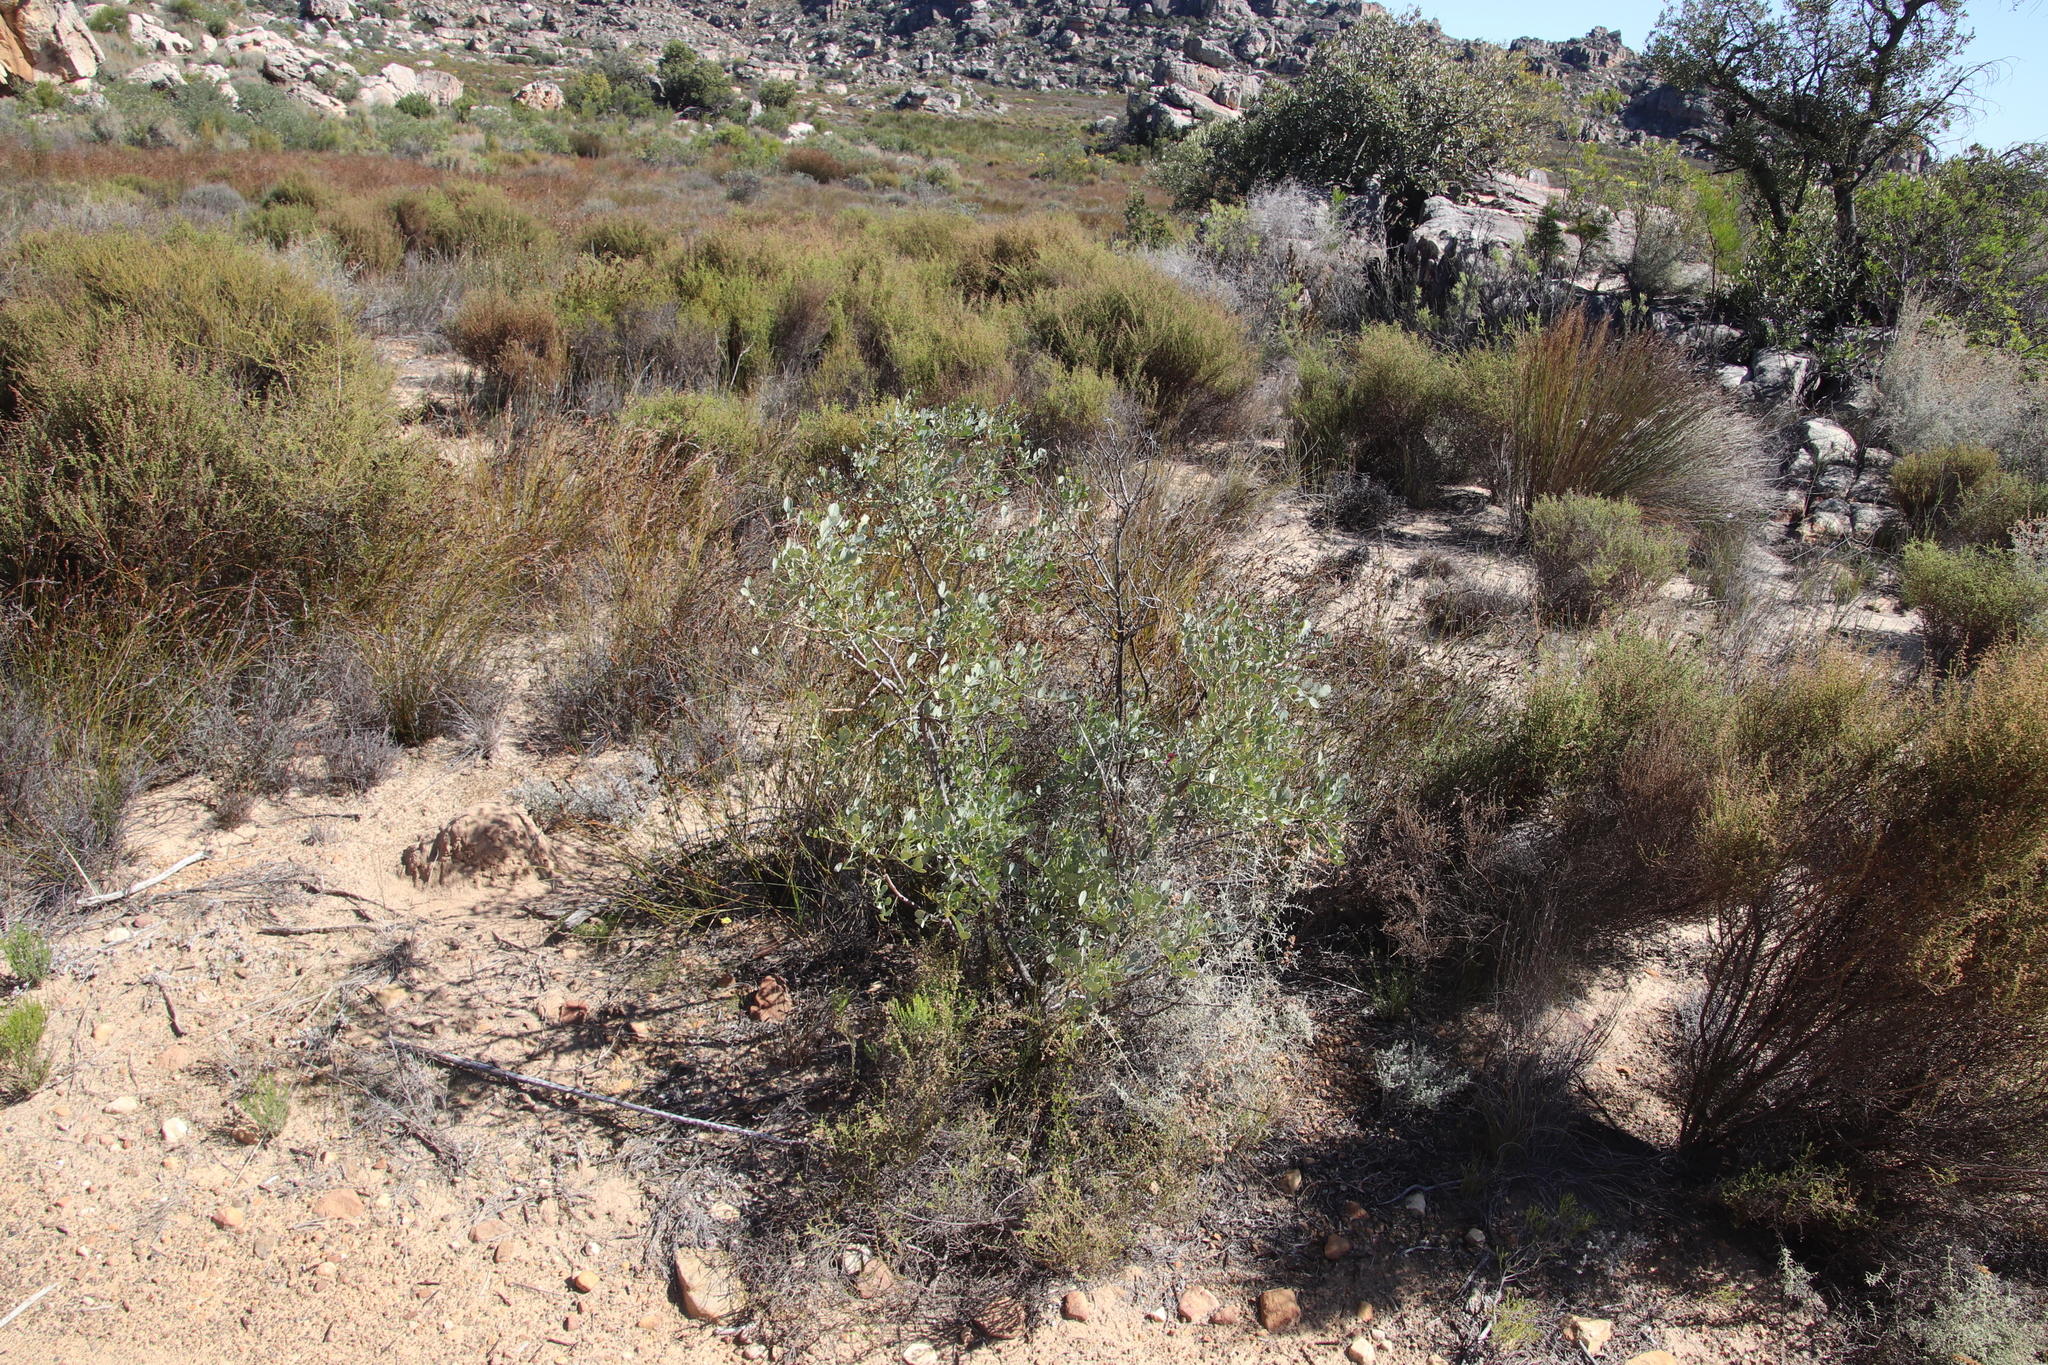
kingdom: Plantae
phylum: Tracheophyta
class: Magnoliopsida
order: Fabales
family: Fabaceae
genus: Indigofera
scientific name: Indigofera frutescens
